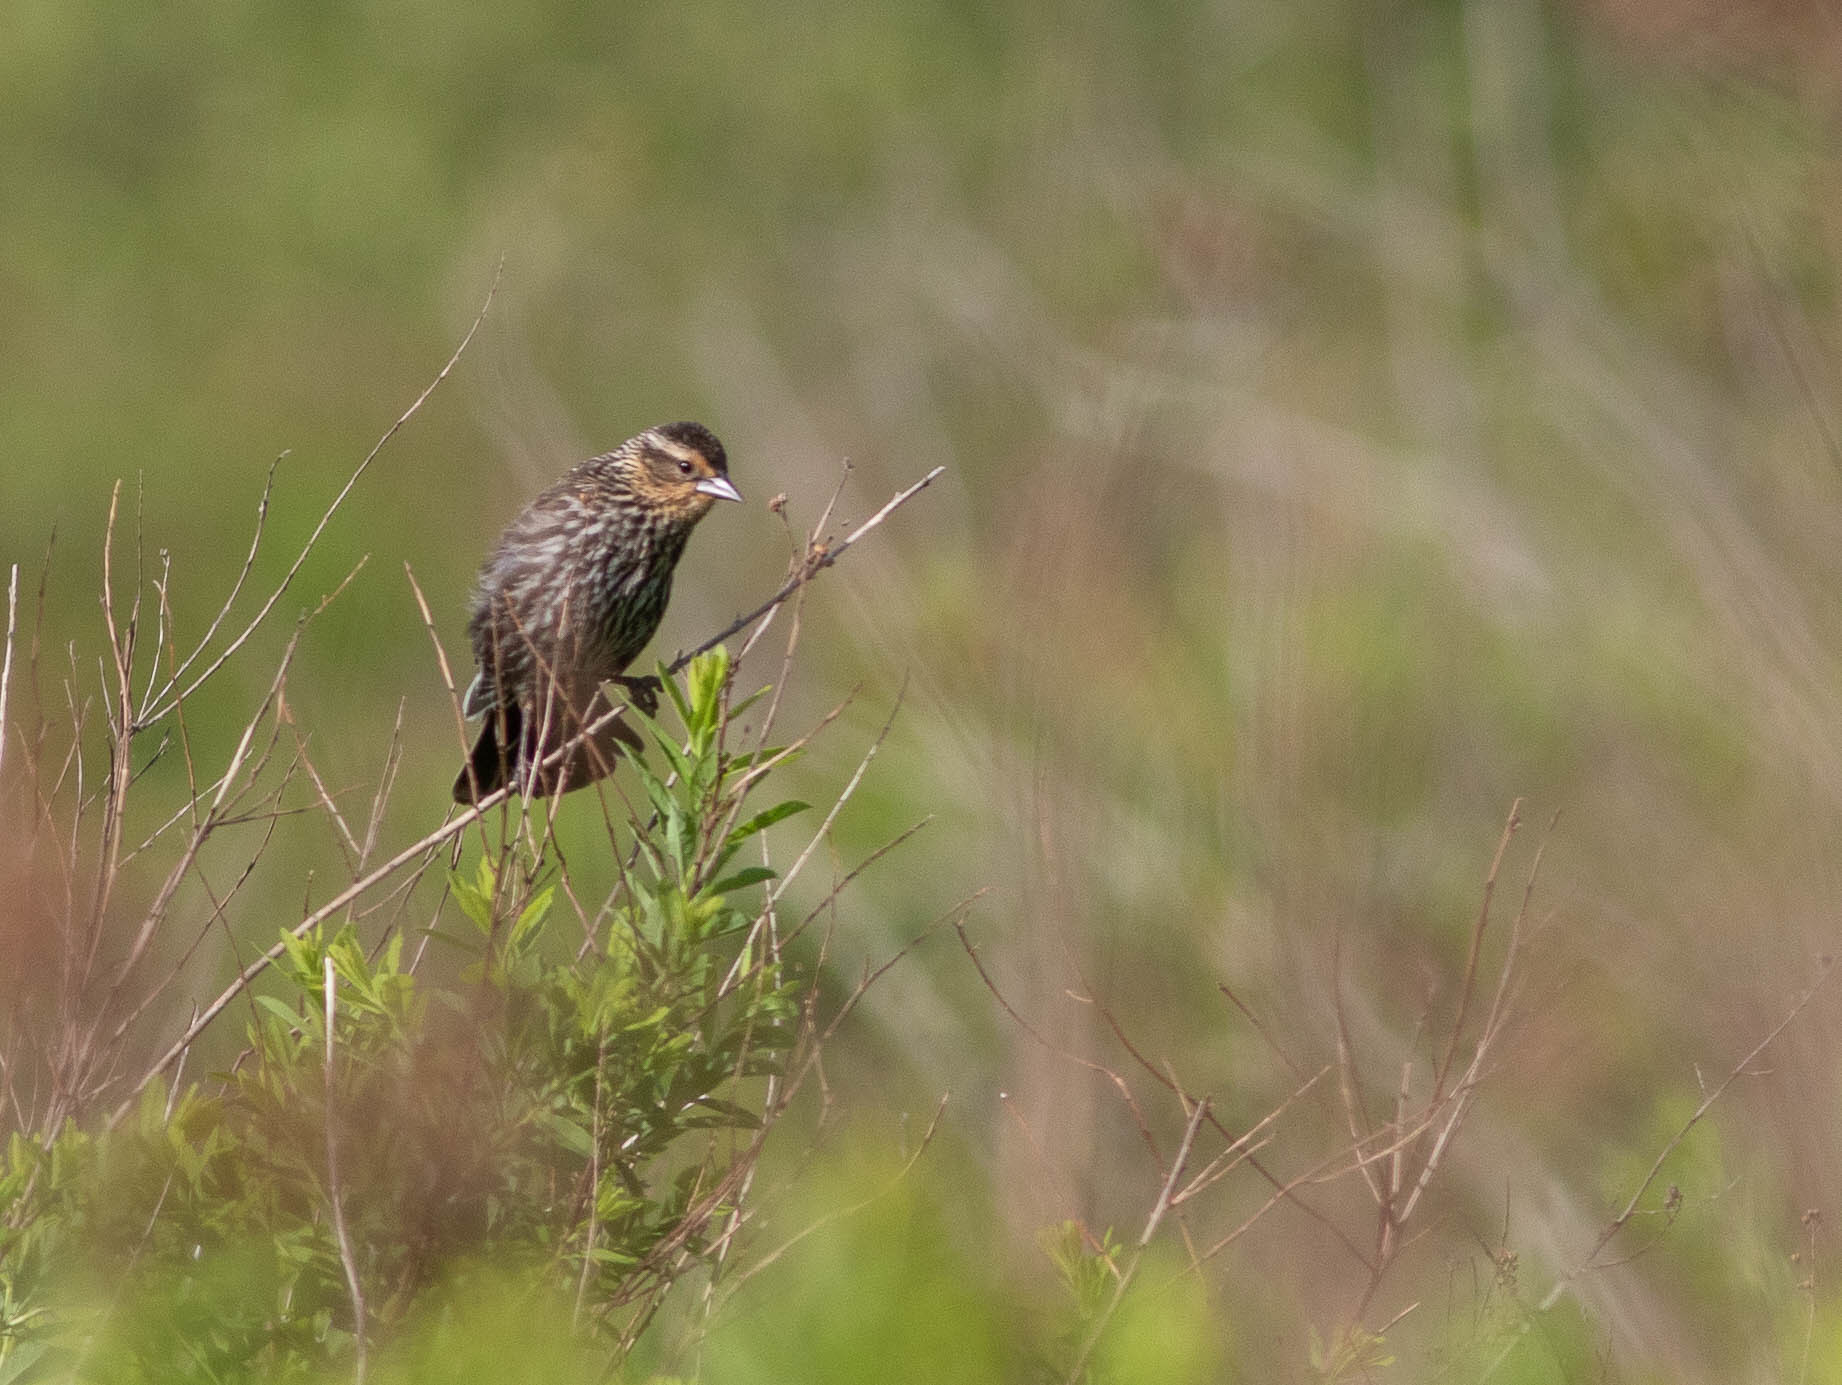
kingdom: Animalia
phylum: Chordata
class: Aves
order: Passeriformes
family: Icteridae
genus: Agelaius
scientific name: Agelaius phoeniceus
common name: Red-winged blackbird
